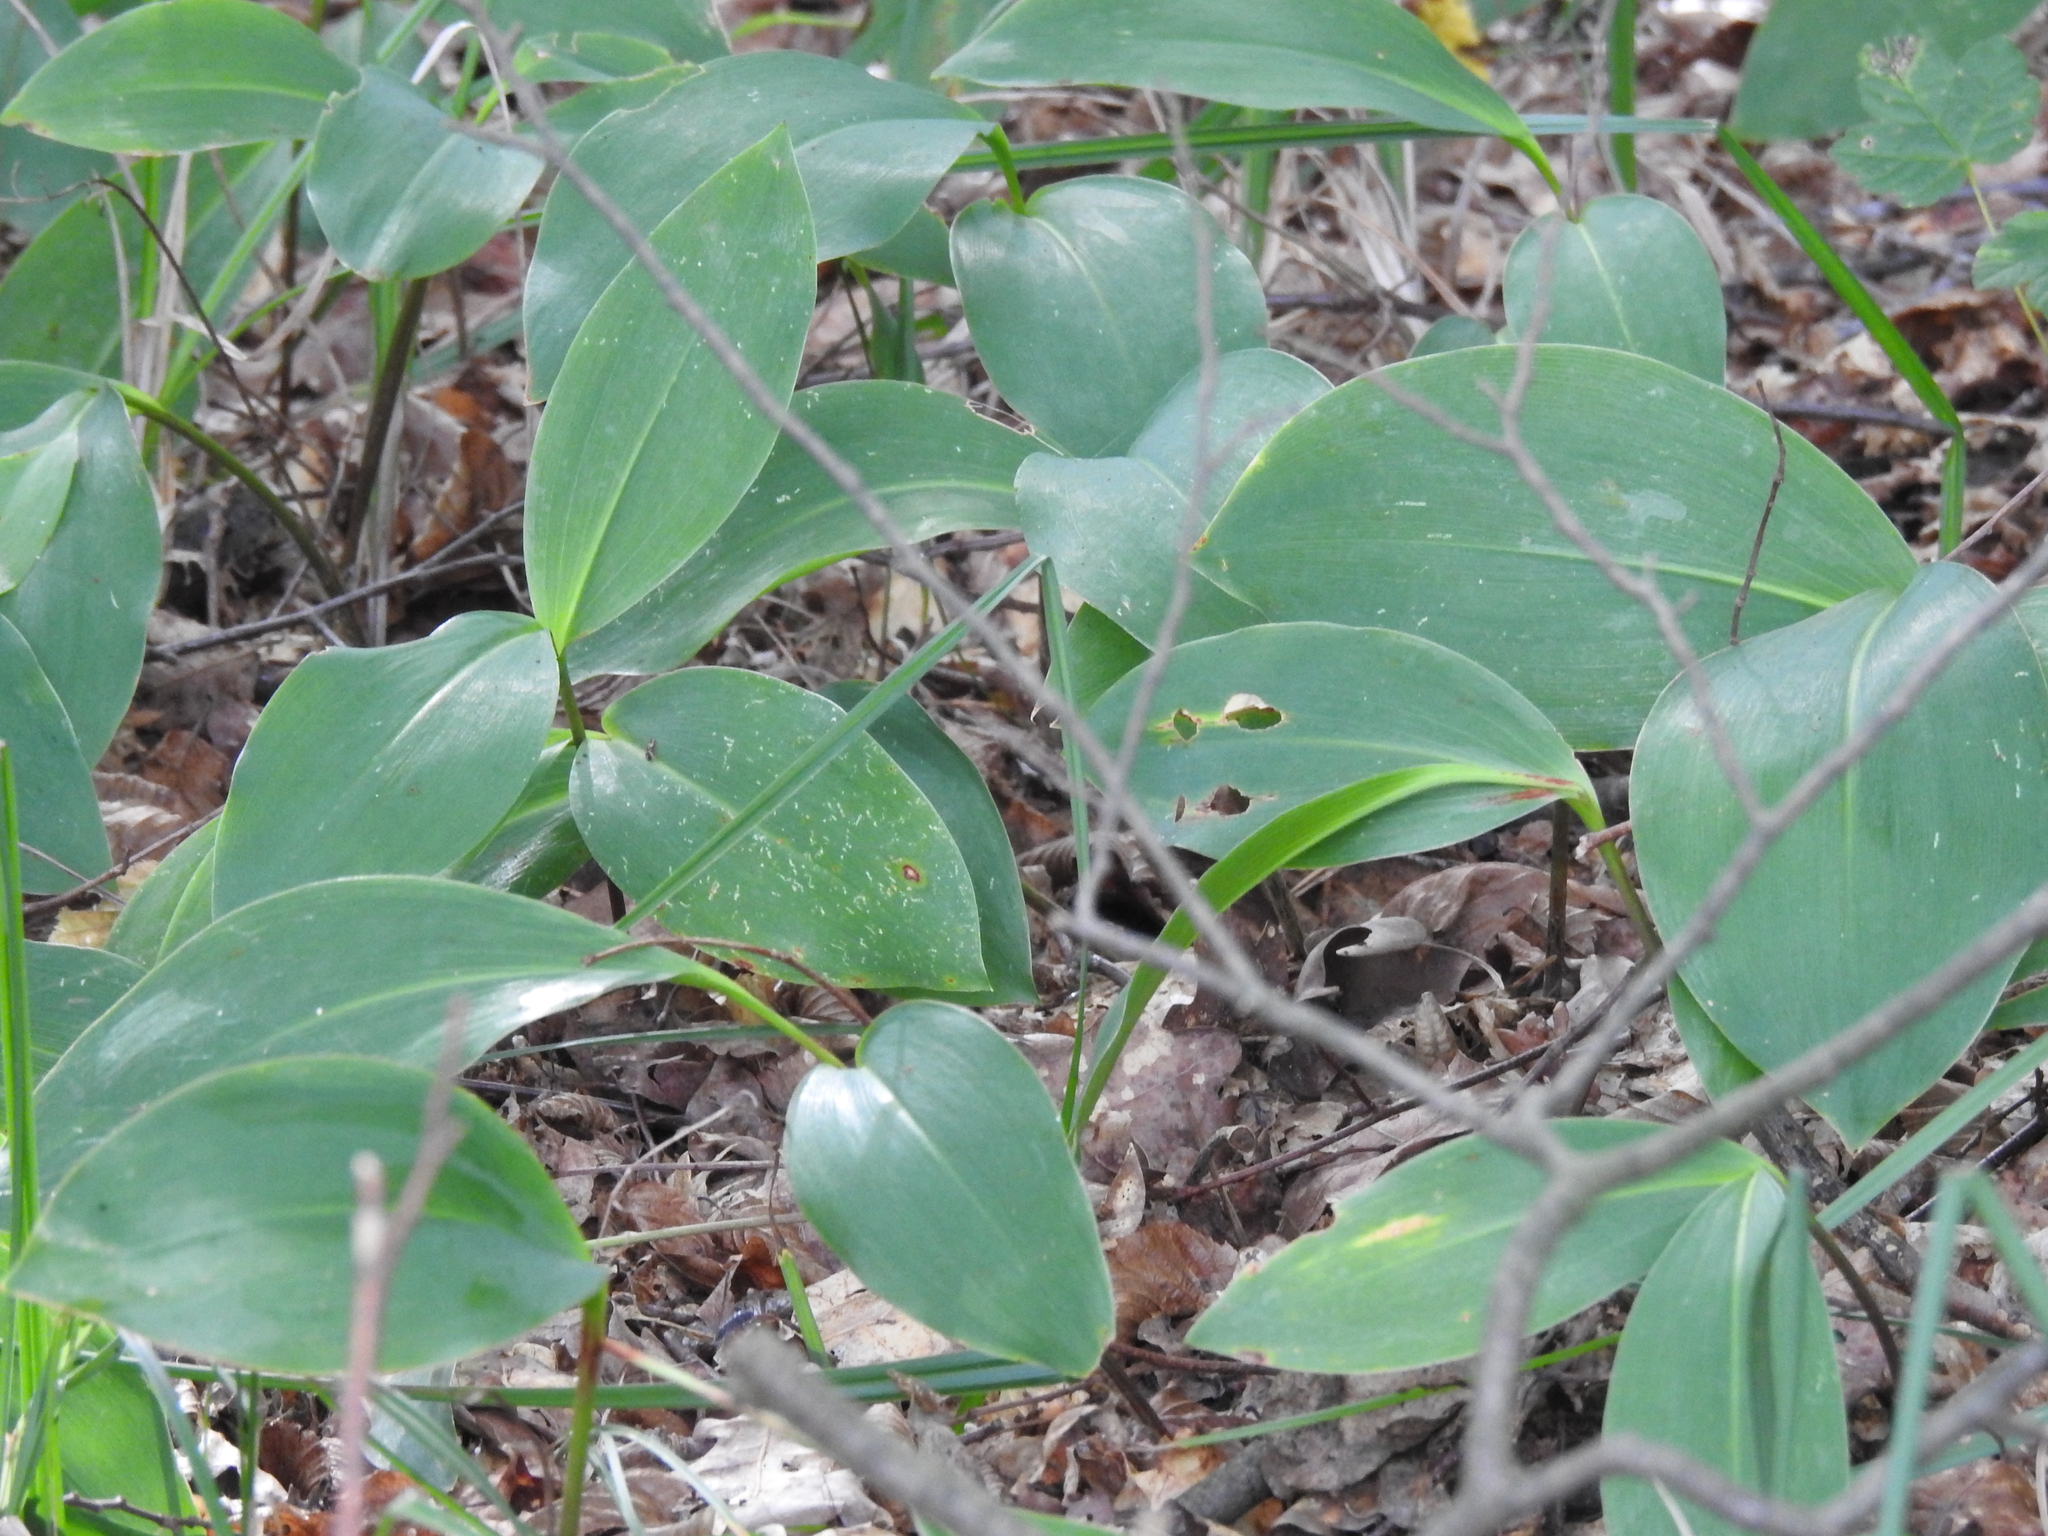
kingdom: Plantae
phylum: Tracheophyta
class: Liliopsida
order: Asparagales
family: Asparagaceae
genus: Convallaria
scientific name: Convallaria majalis
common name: Lily-of-the-valley
